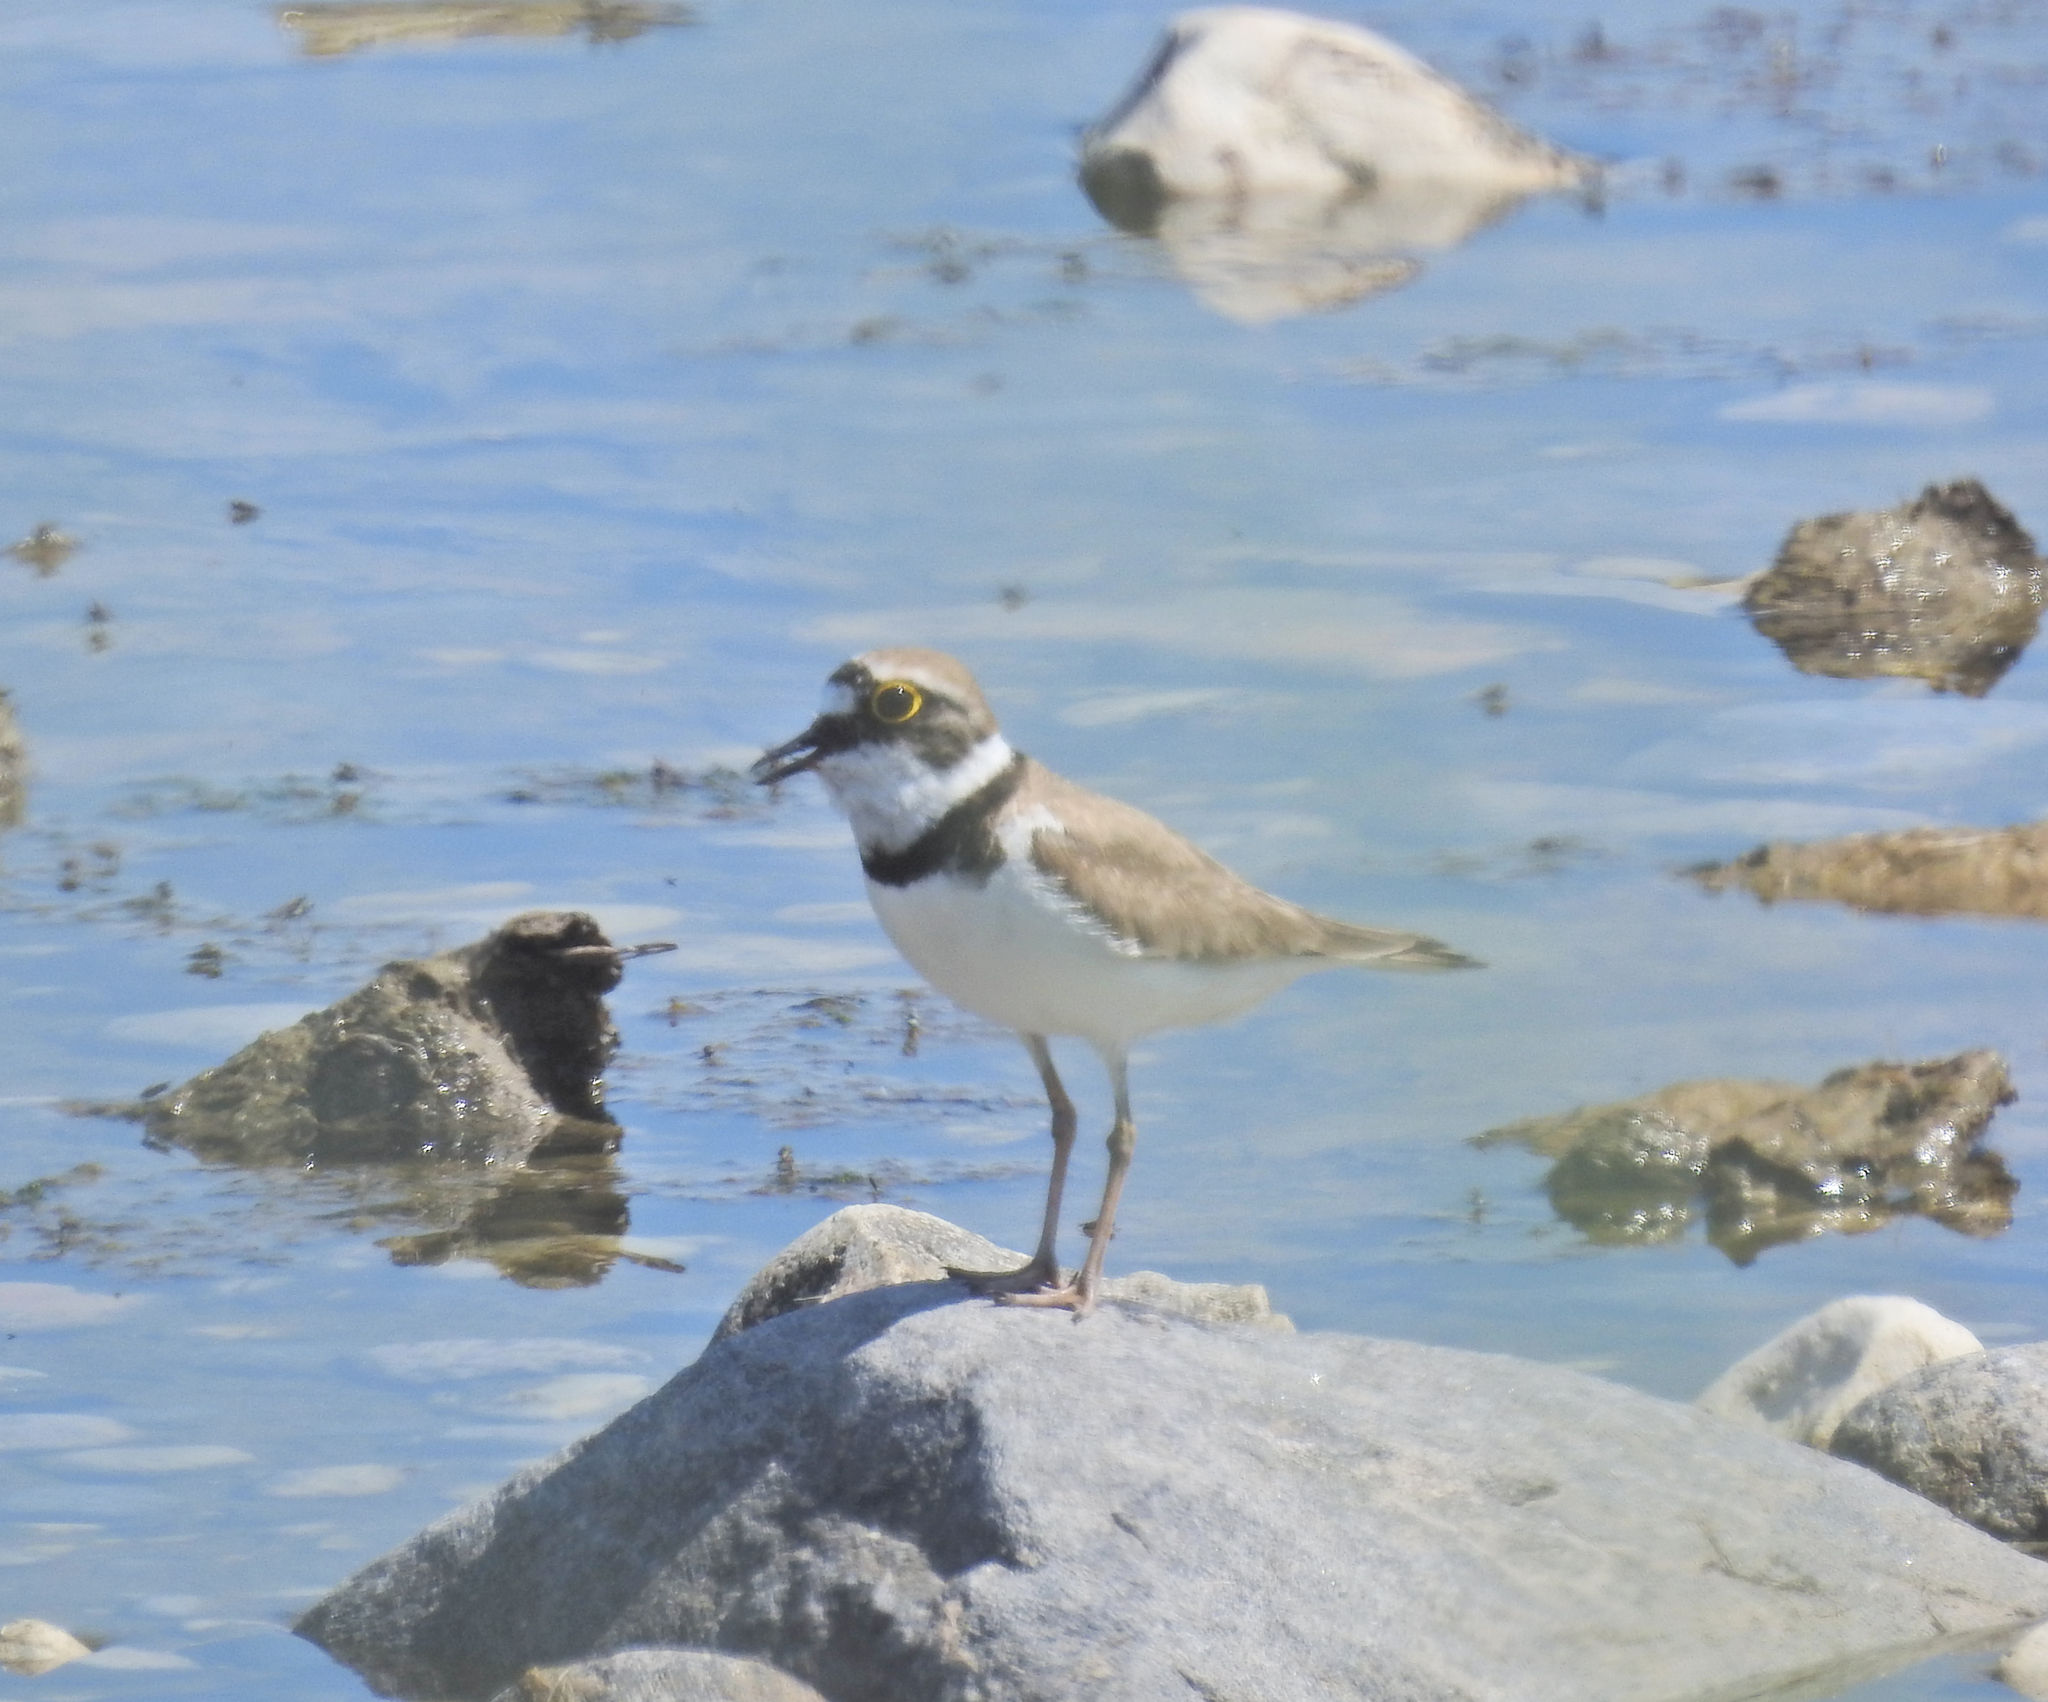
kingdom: Animalia
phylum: Chordata
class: Aves
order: Charadriiformes
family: Charadriidae
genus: Charadrius
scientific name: Charadrius dubius
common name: Little ringed plover
